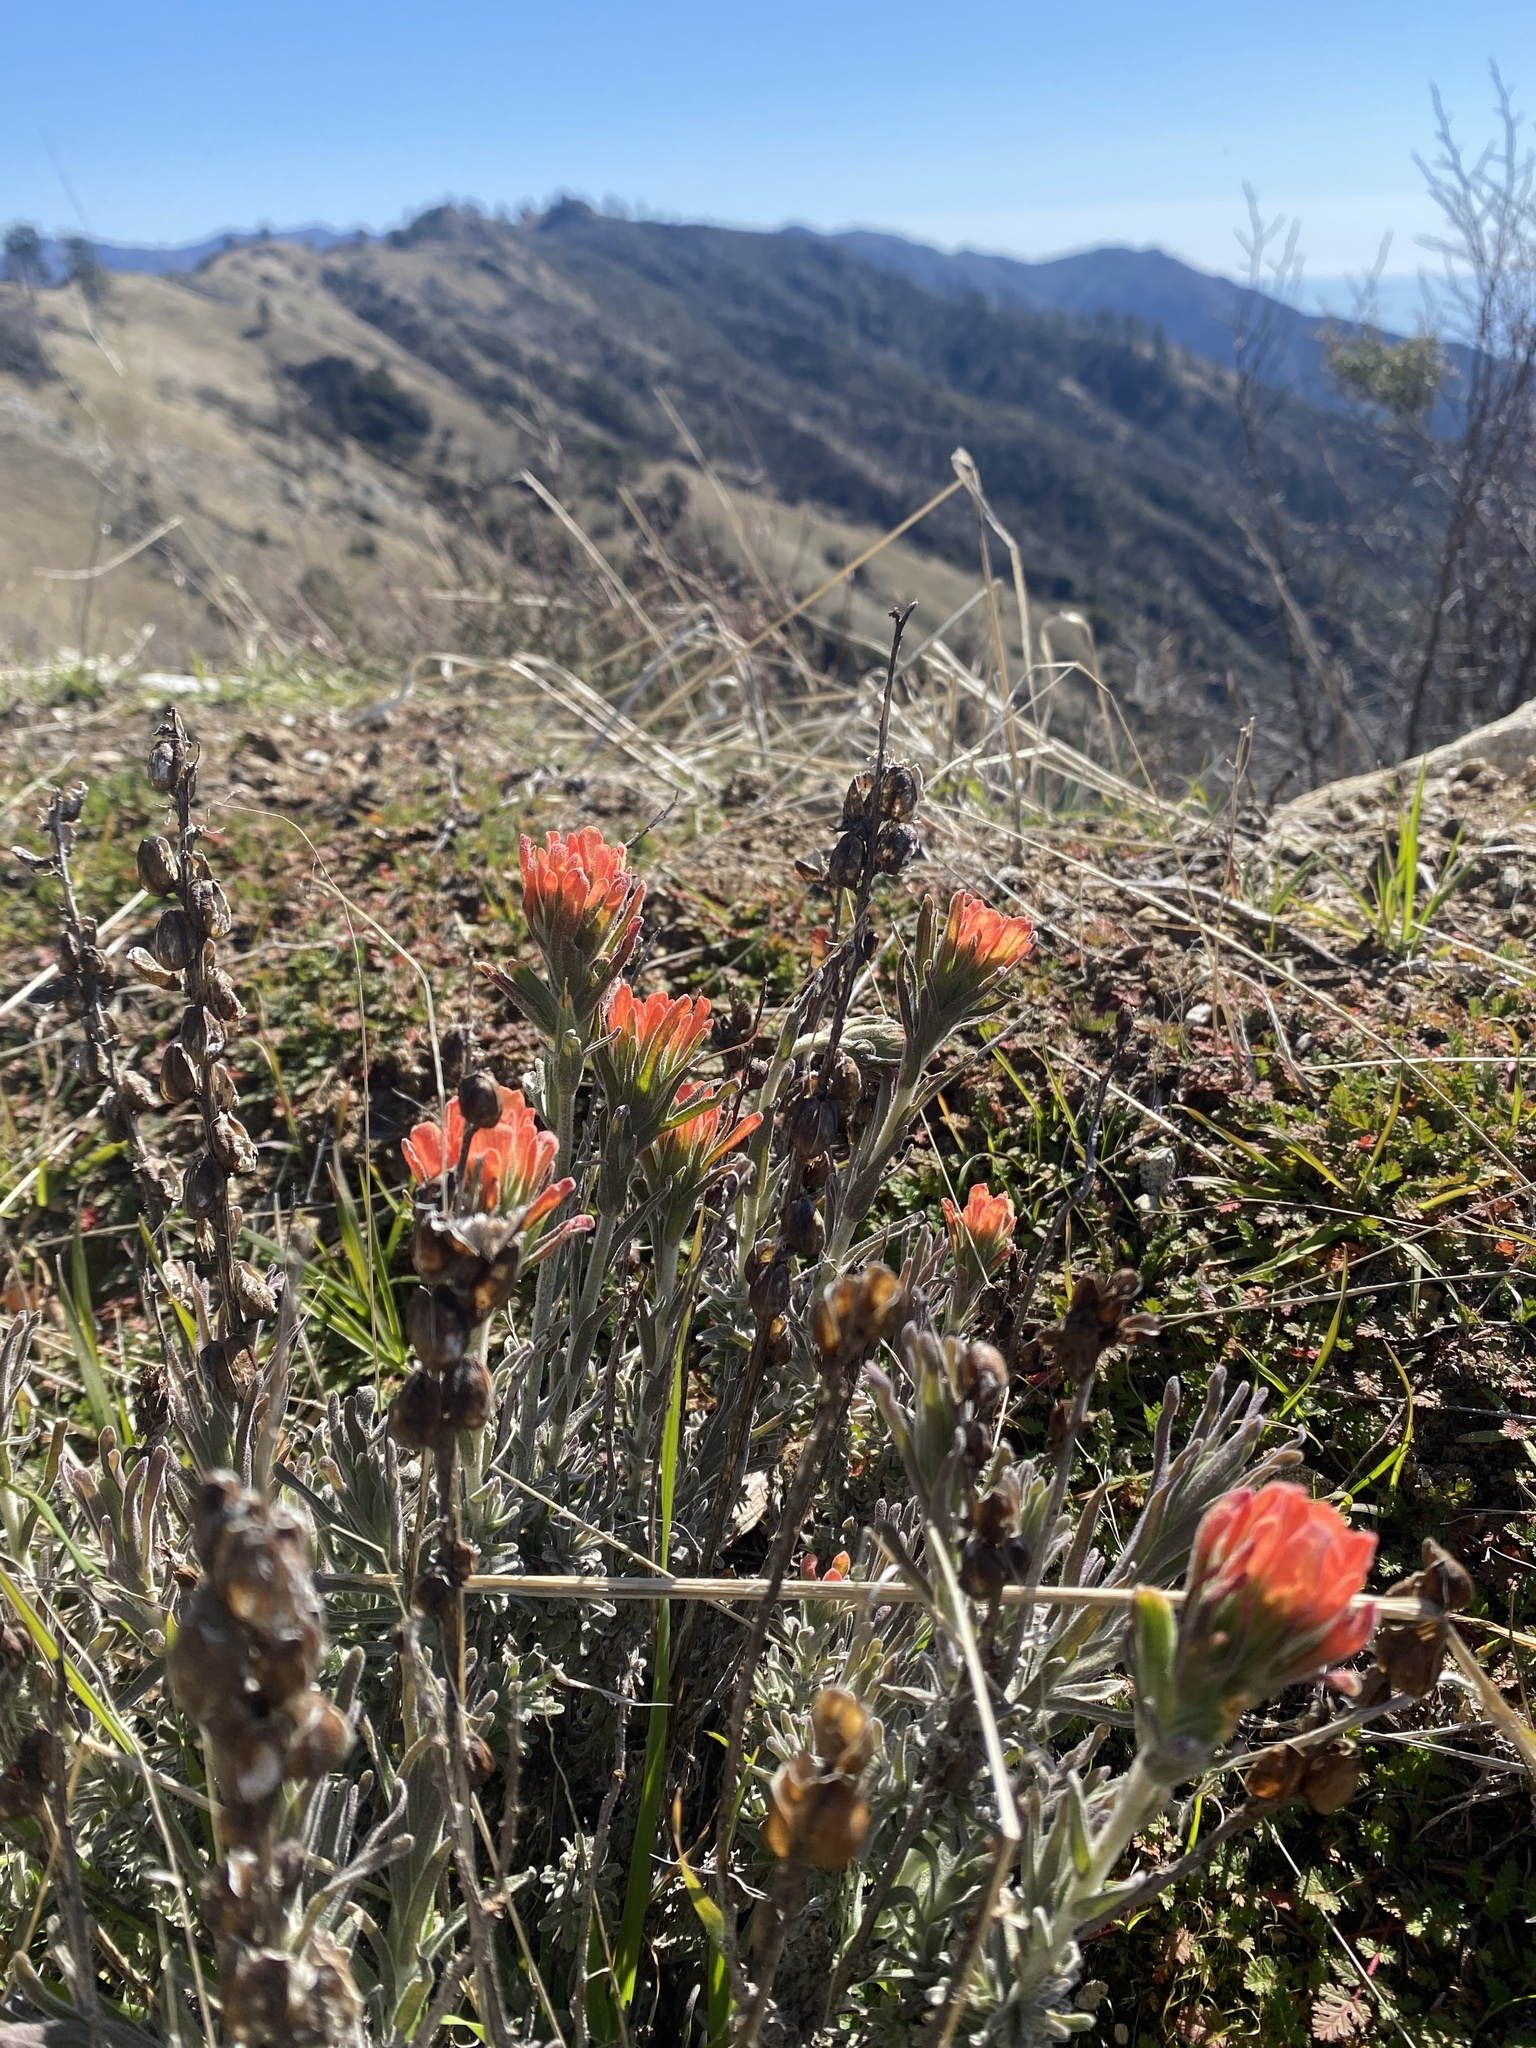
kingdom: Plantae
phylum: Tracheophyta
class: Magnoliopsida
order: Lamiales
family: Orobanchaceae
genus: Castilleja
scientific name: Castilleja foliolosa
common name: Woolly indian paintbrush
